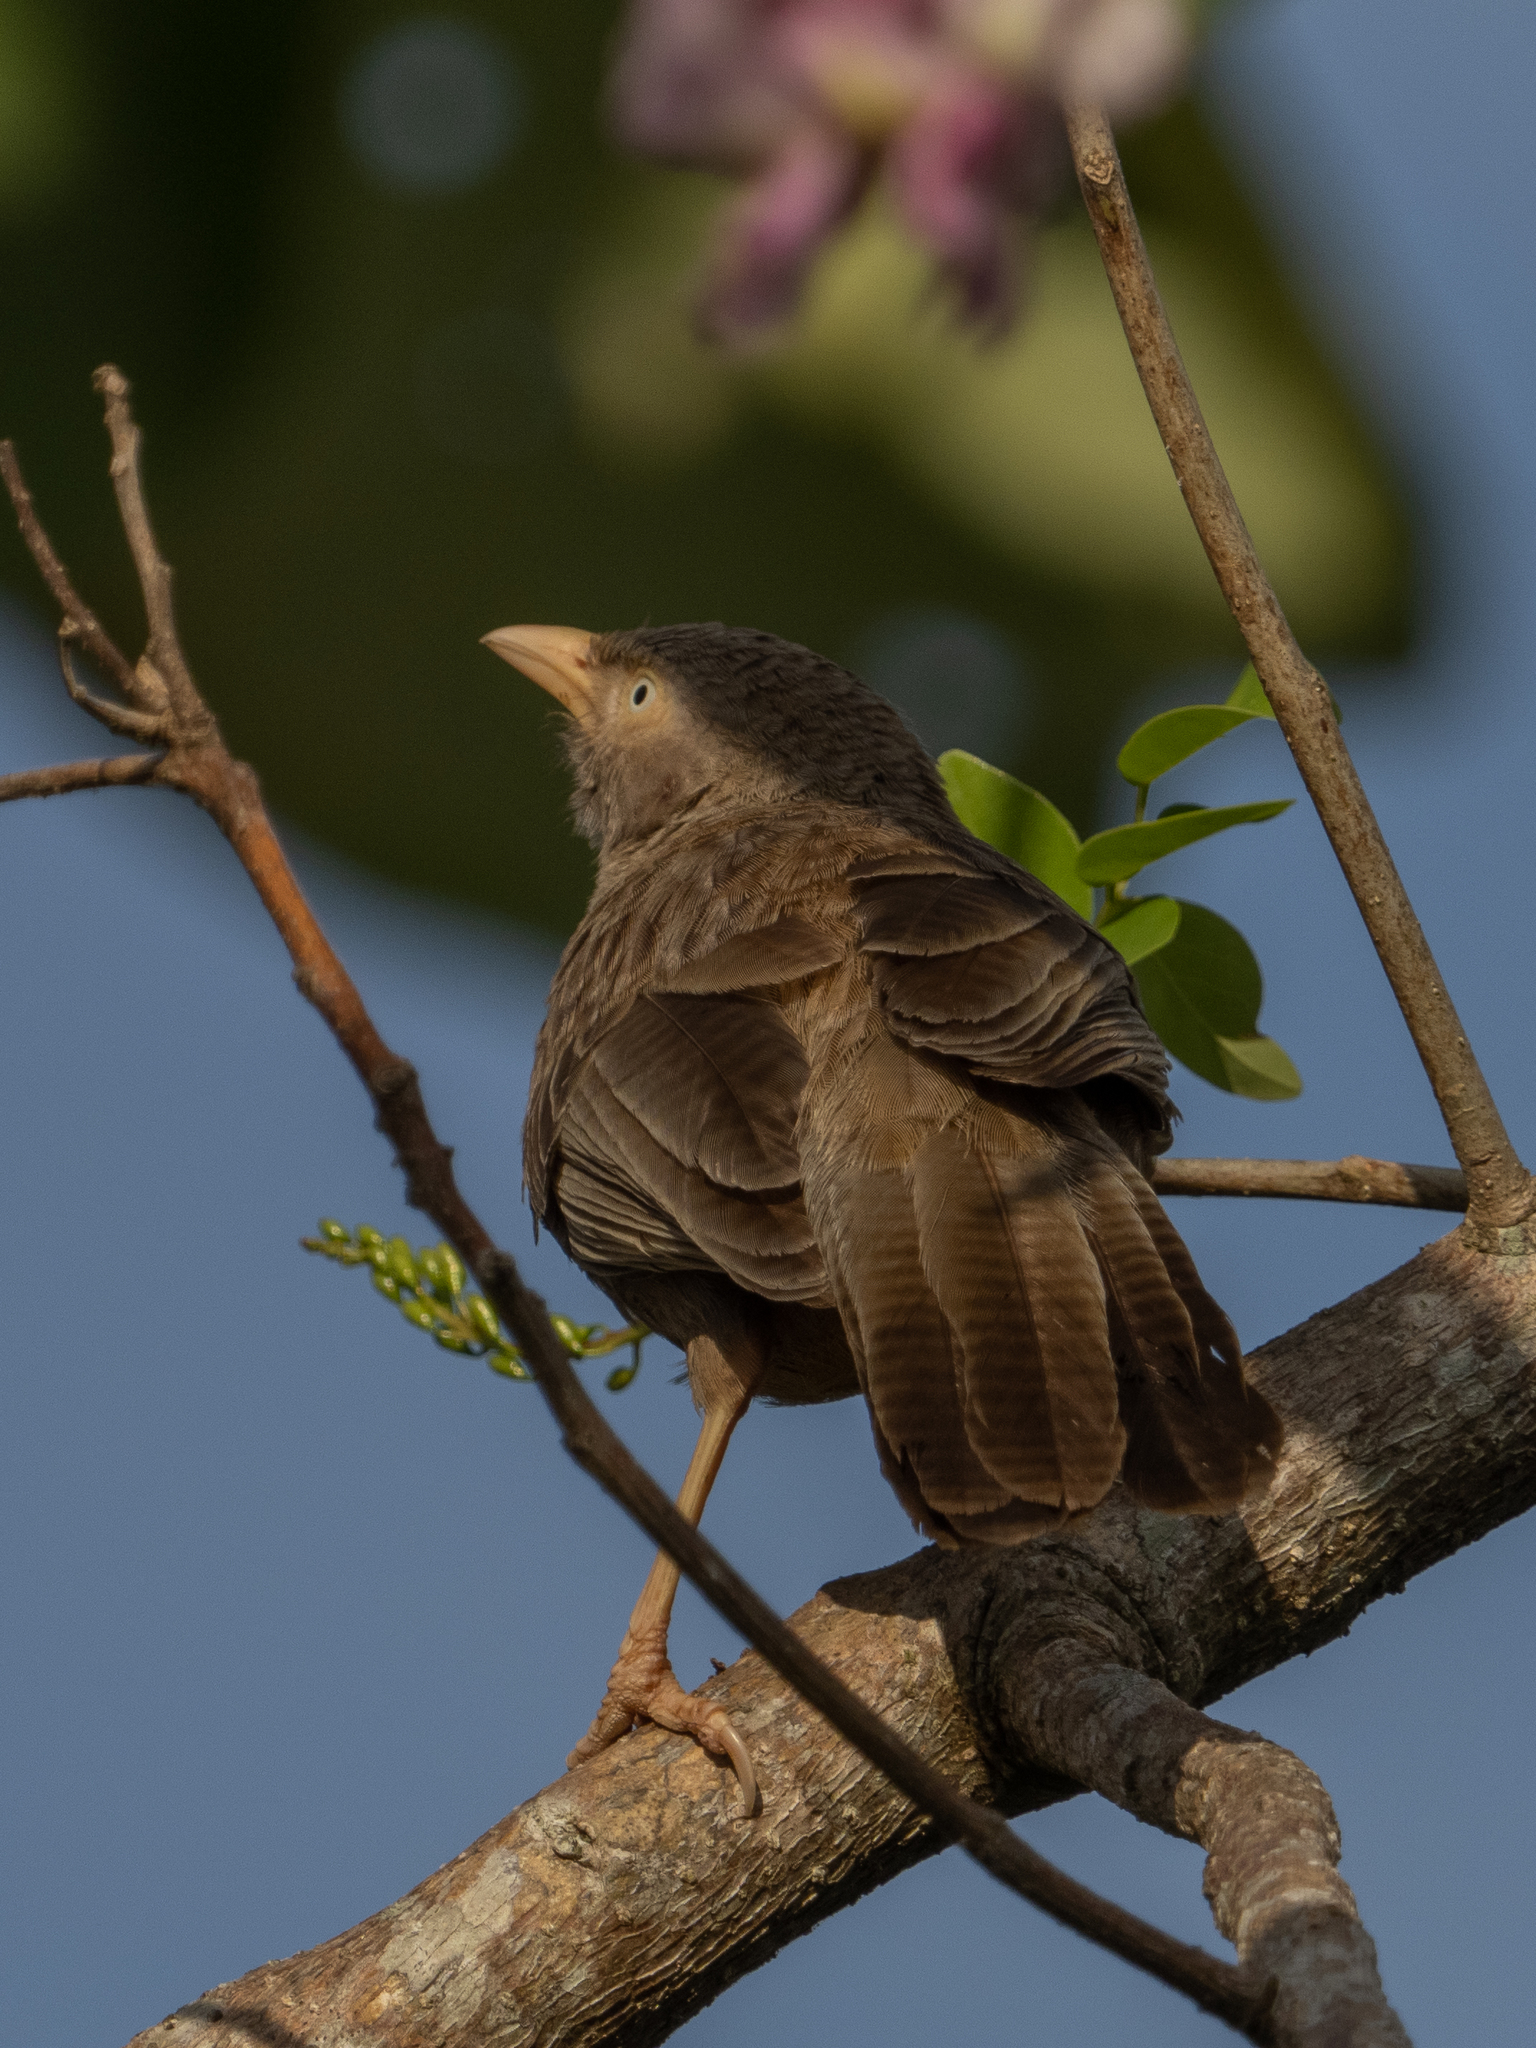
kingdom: Animalia
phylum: Chordata
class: Aves
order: Passeriformes
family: Leiothrichidae
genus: Turdoides
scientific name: Turdoides affinis
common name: Yellow-billed babbler
